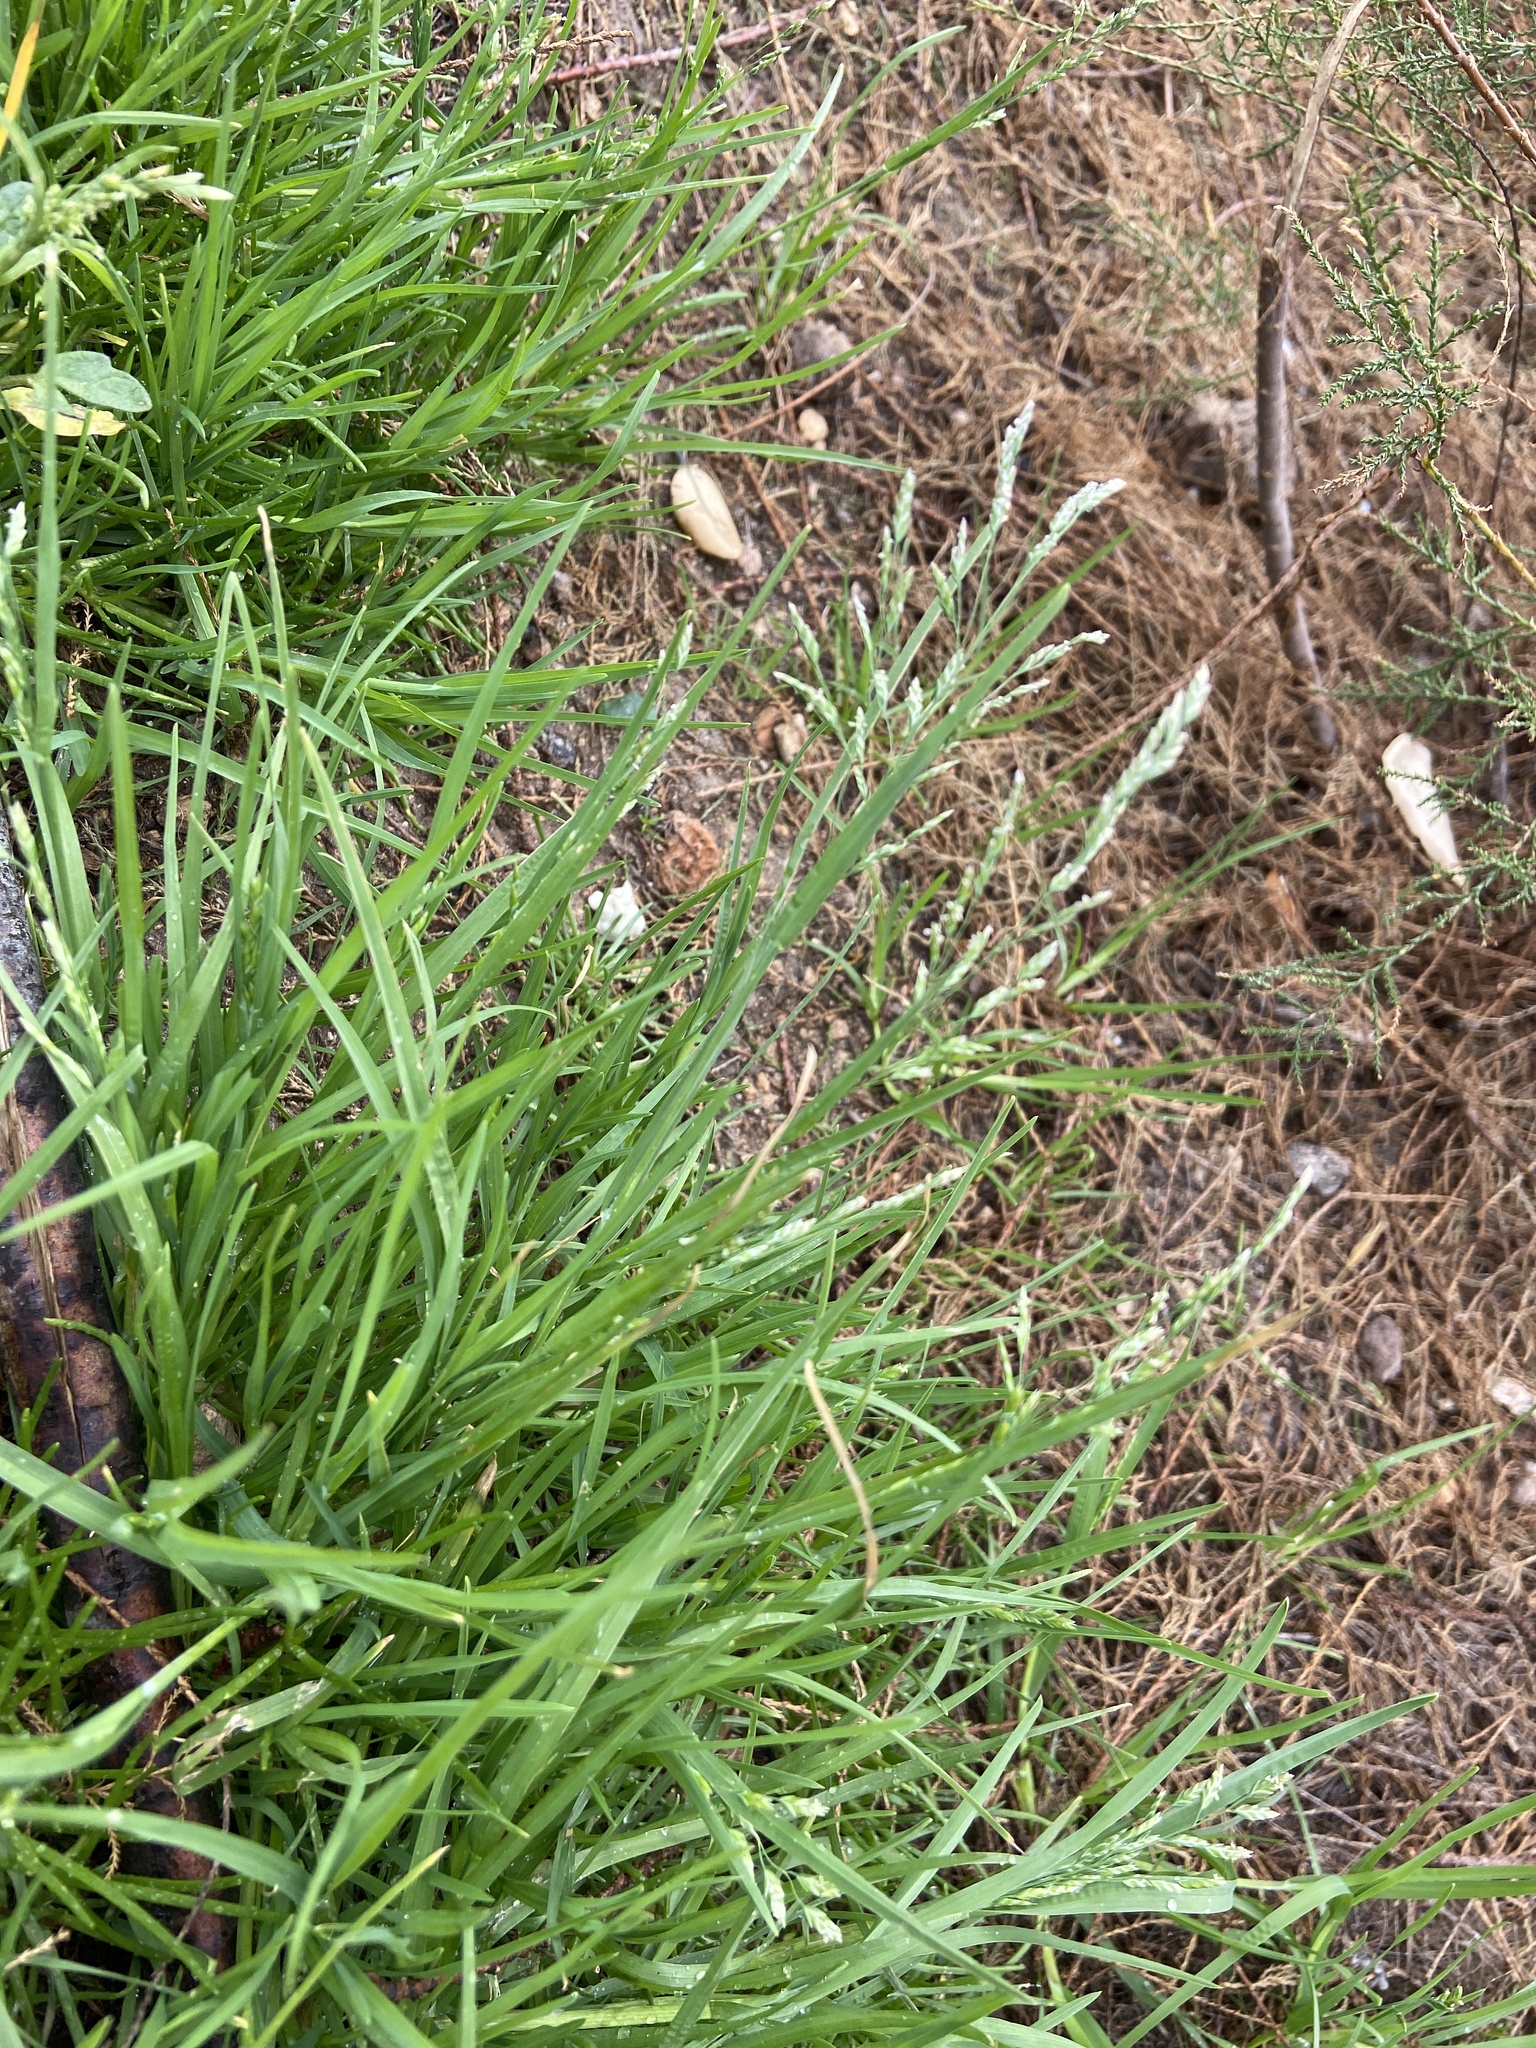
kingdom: Plantae
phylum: Tracheophyta
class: Liliopsida
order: Poales
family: Poaceae
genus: Poa
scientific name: Poa annua
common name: Annual bluegrass
